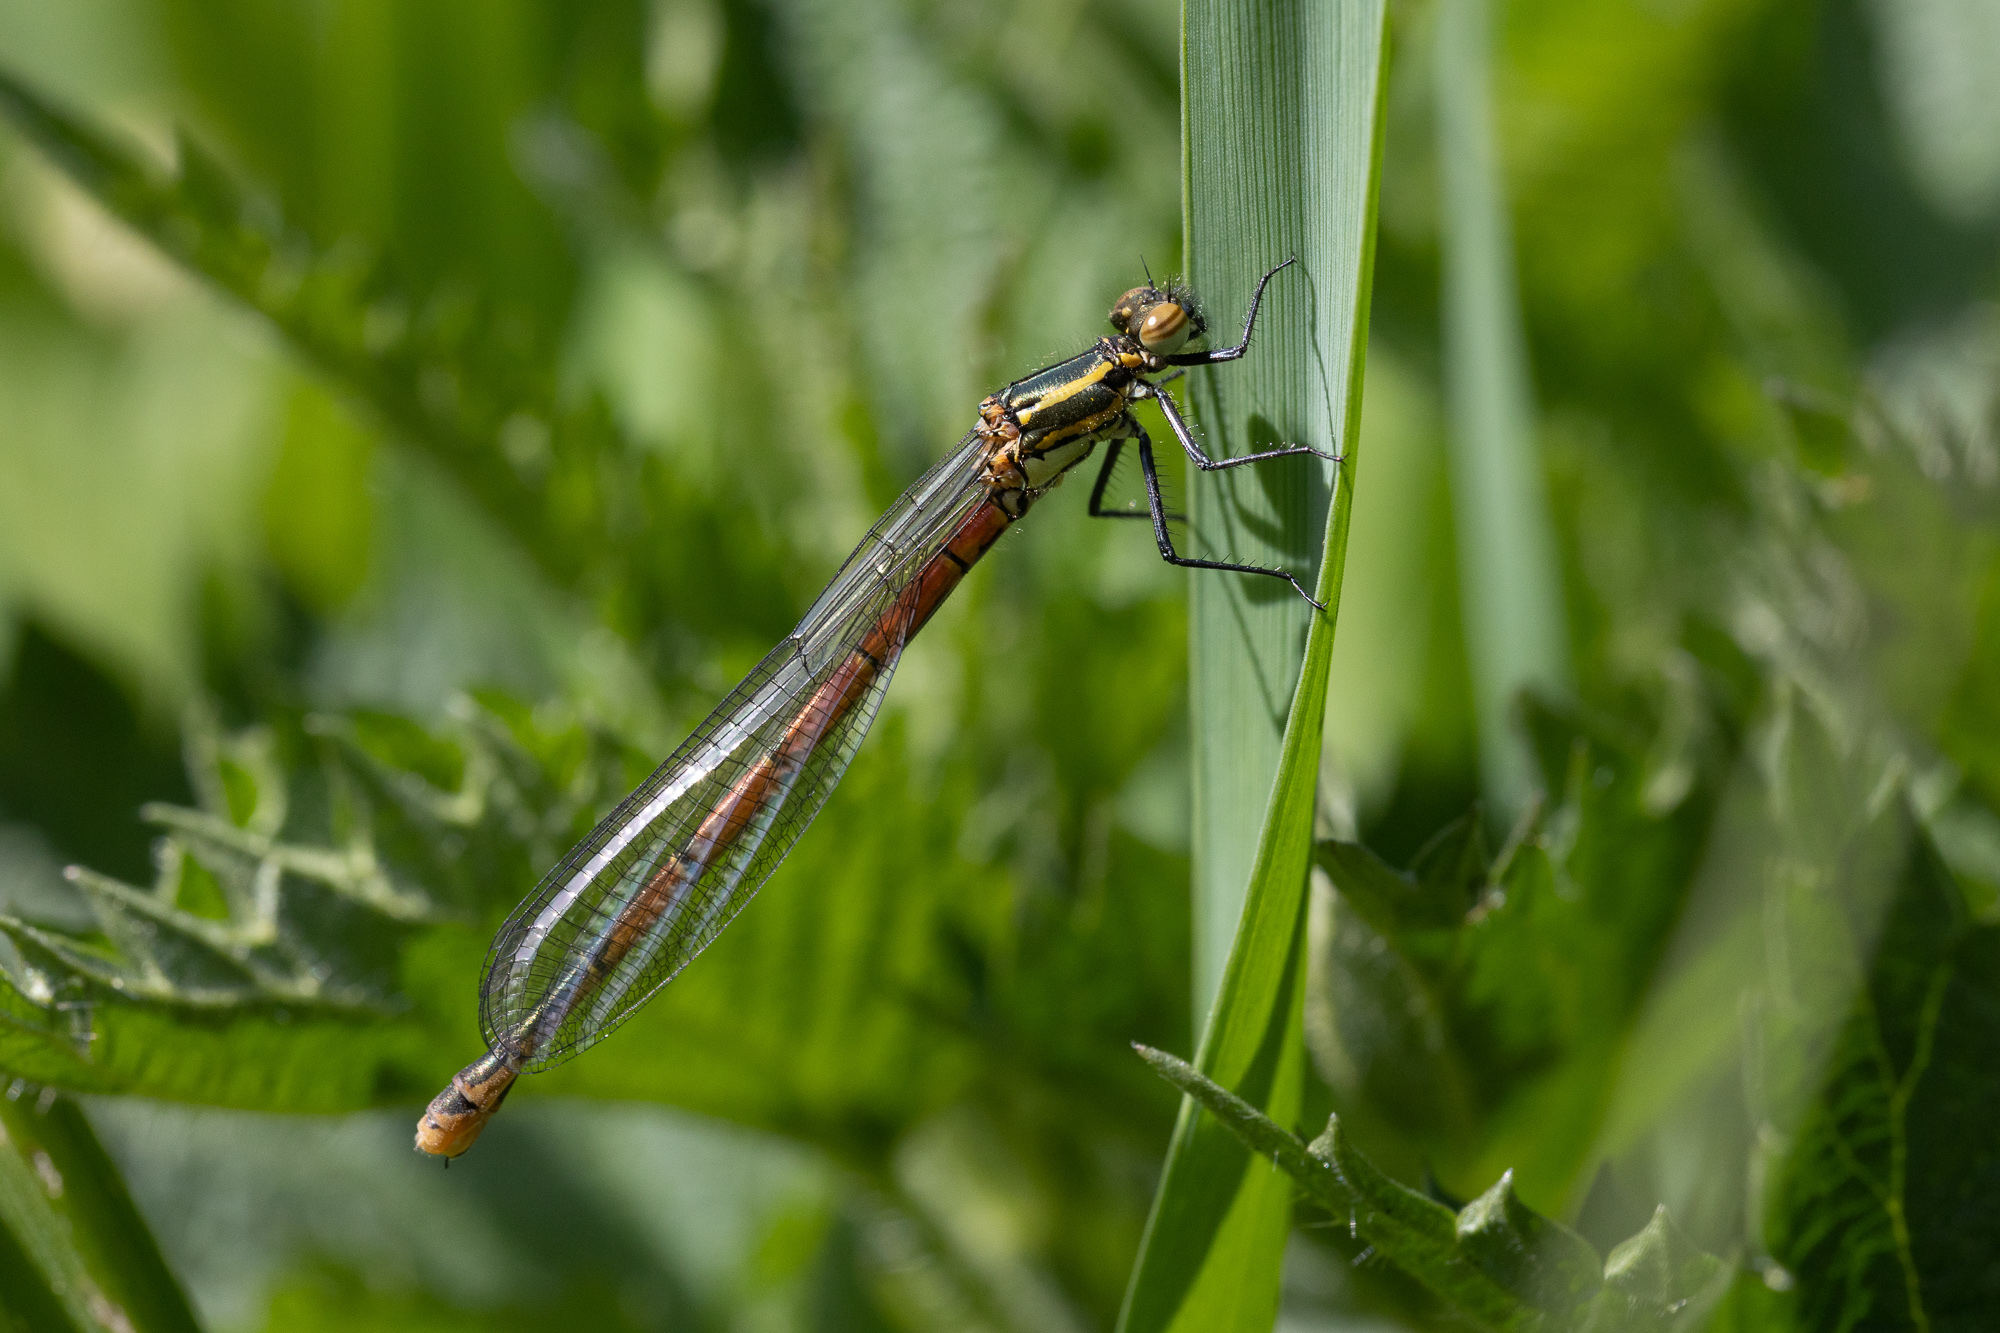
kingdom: Animalia
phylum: Arthropoda
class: Insecta
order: Odonata
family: Coenagrionidae
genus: Pyrrhosoma
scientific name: Pyrrhosoma nymphula
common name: Large red damsel
